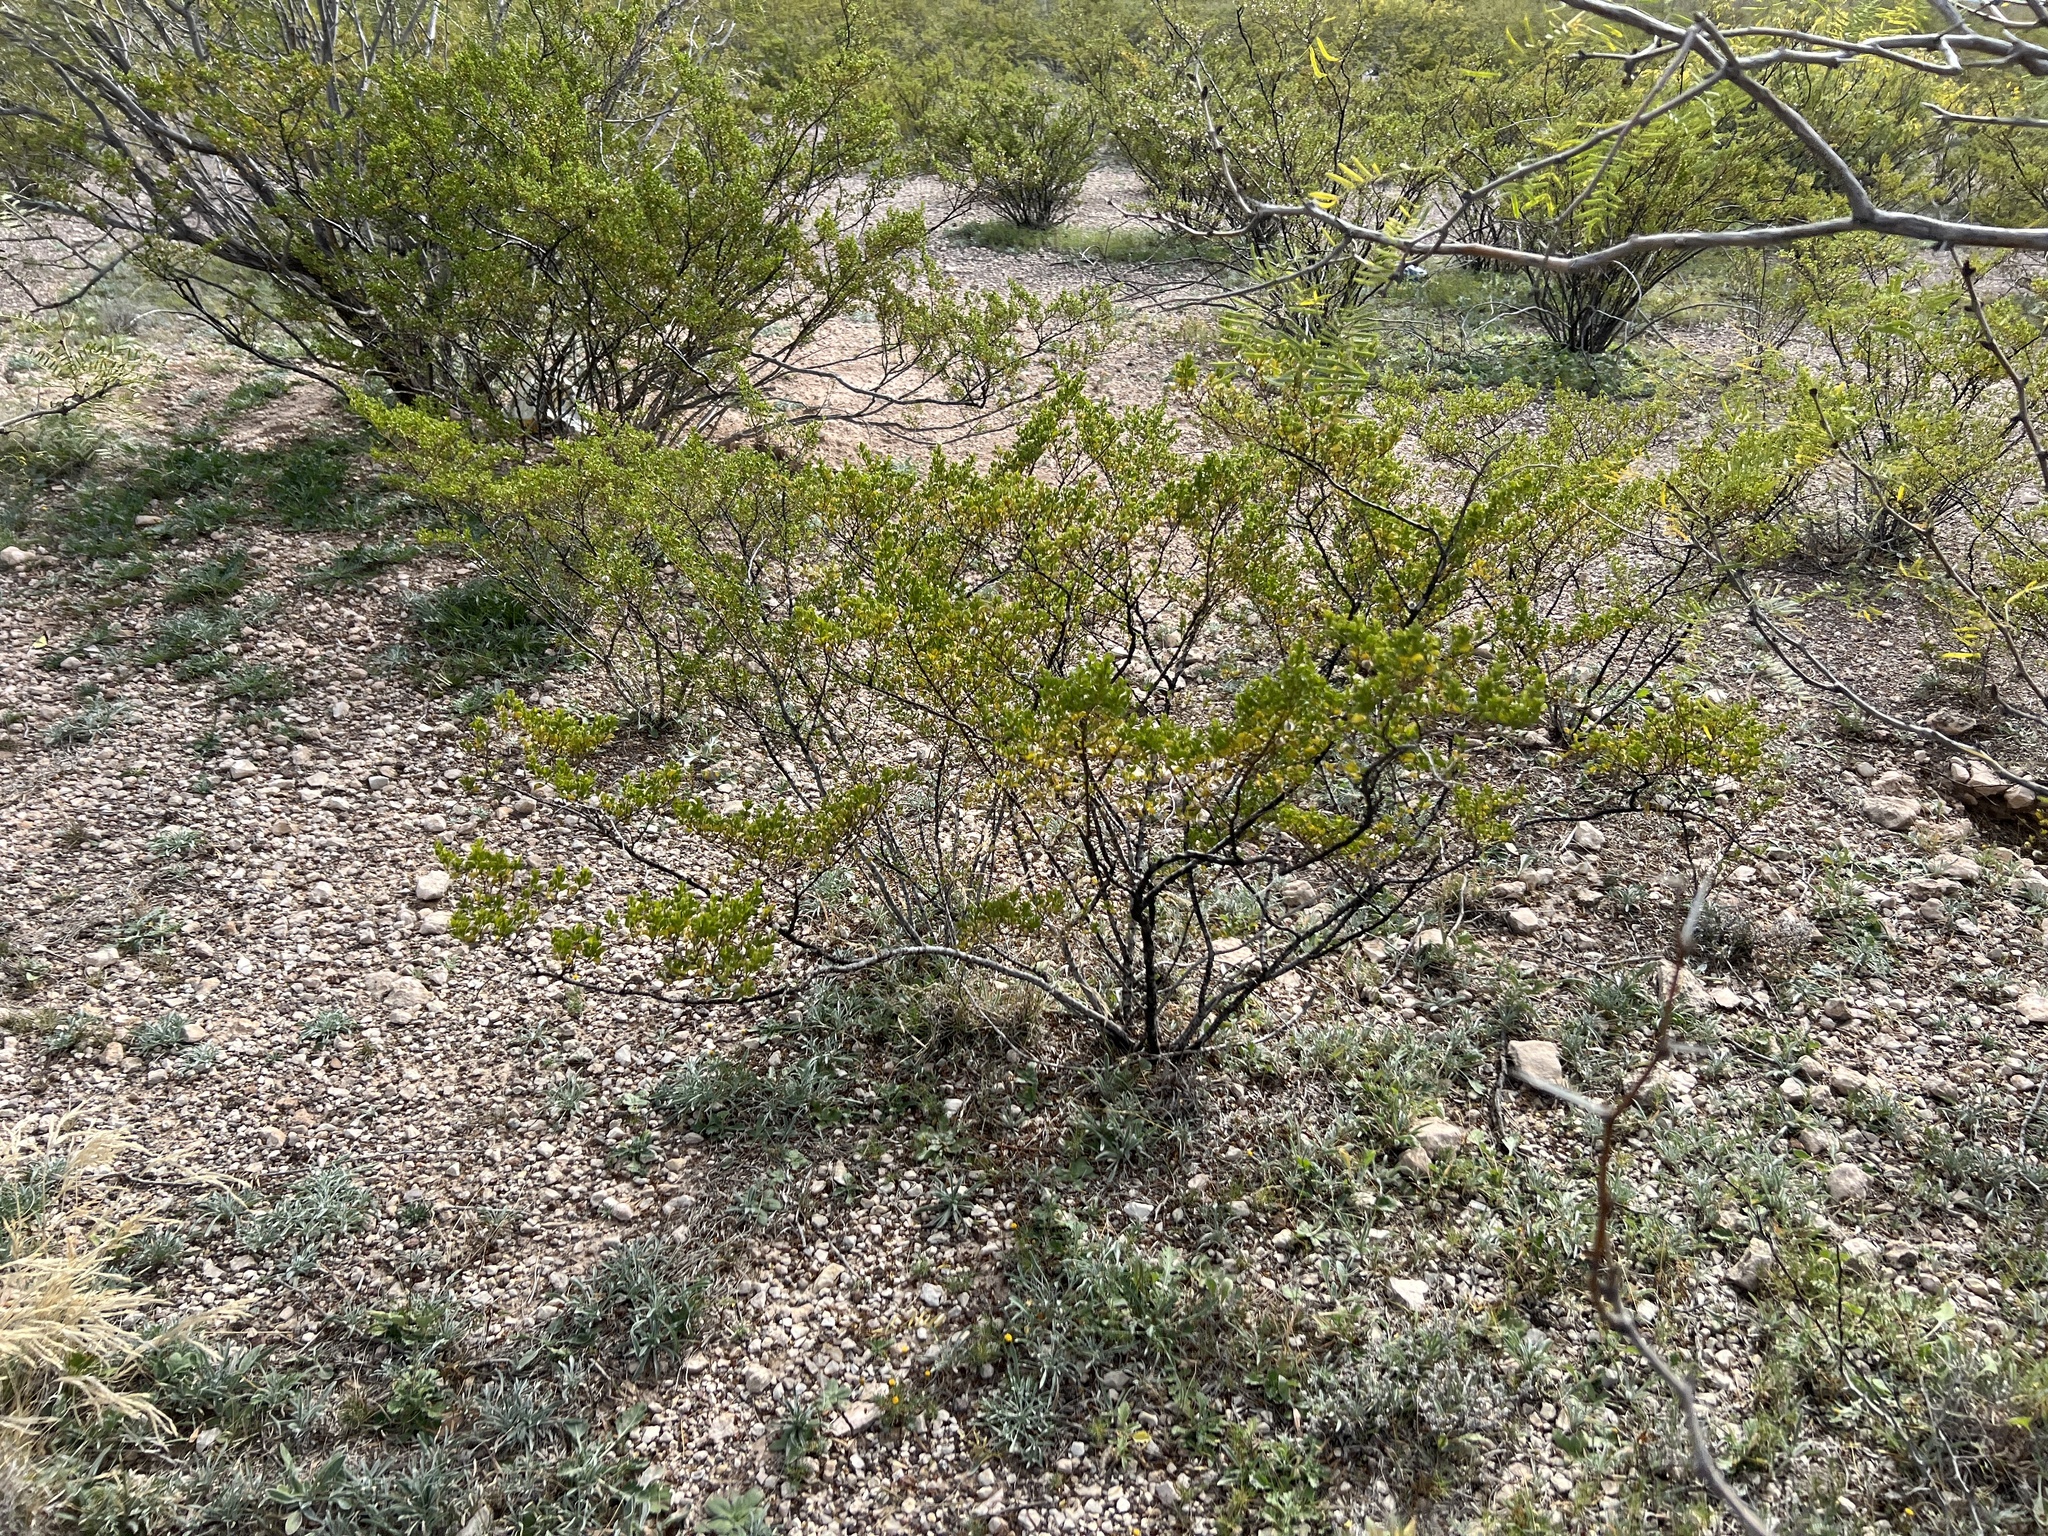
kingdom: Plantae
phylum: Tracheophyta
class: Magnoliopsida
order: Zygophyllales
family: Zygophyllaceae
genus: Larrea
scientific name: Larrea tridentata
